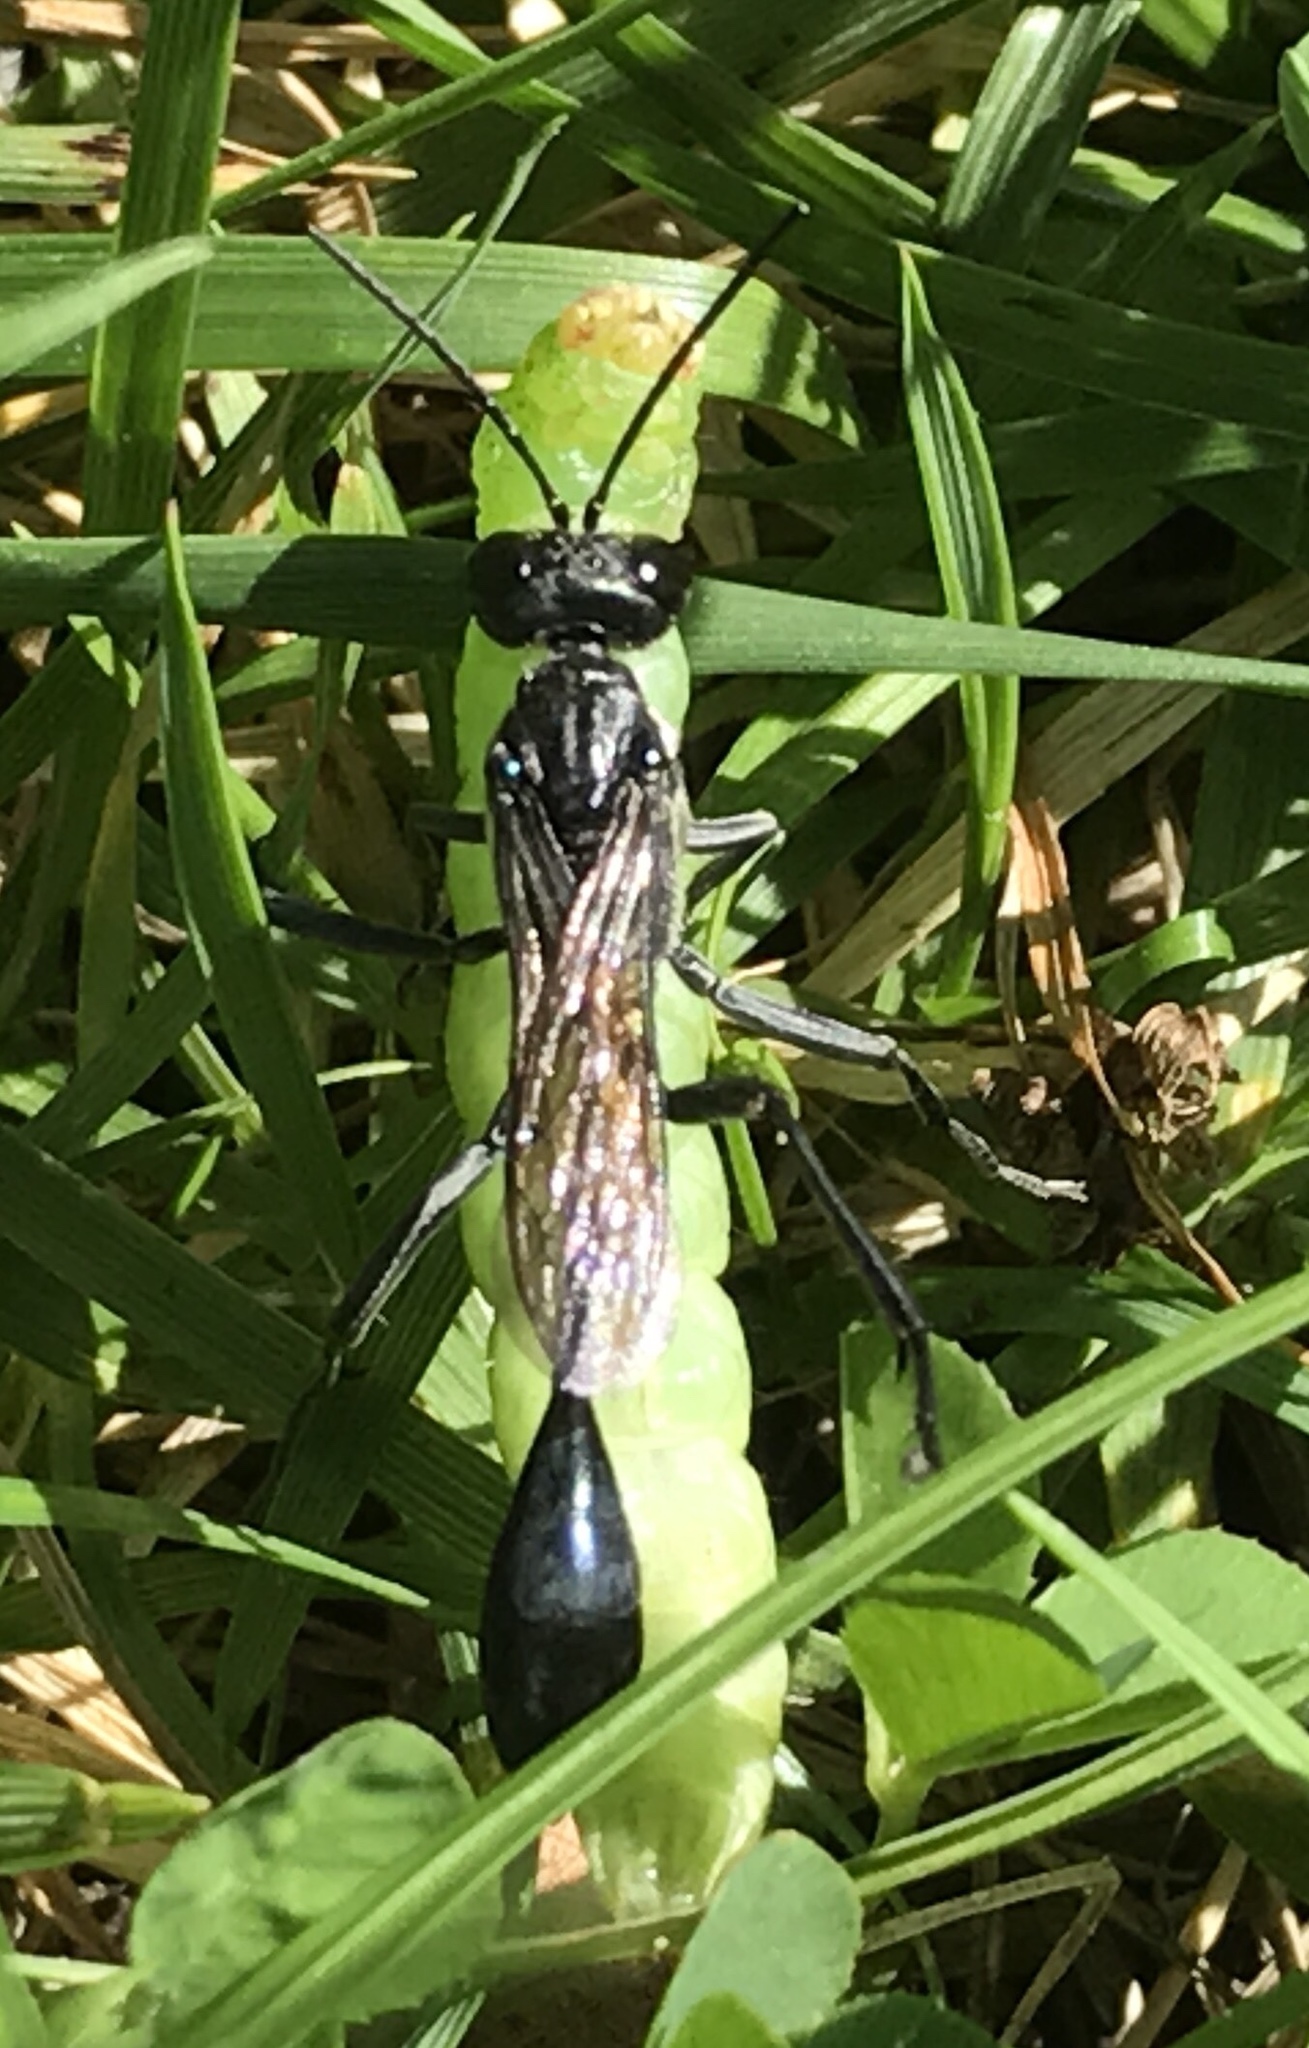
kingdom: Animalia
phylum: Arthropoda
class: Insecta
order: Hymenoptera
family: Sphecidae
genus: Eremnophila
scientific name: Eremnophila aureonotata
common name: Gold-marked thread-waisted wasp
